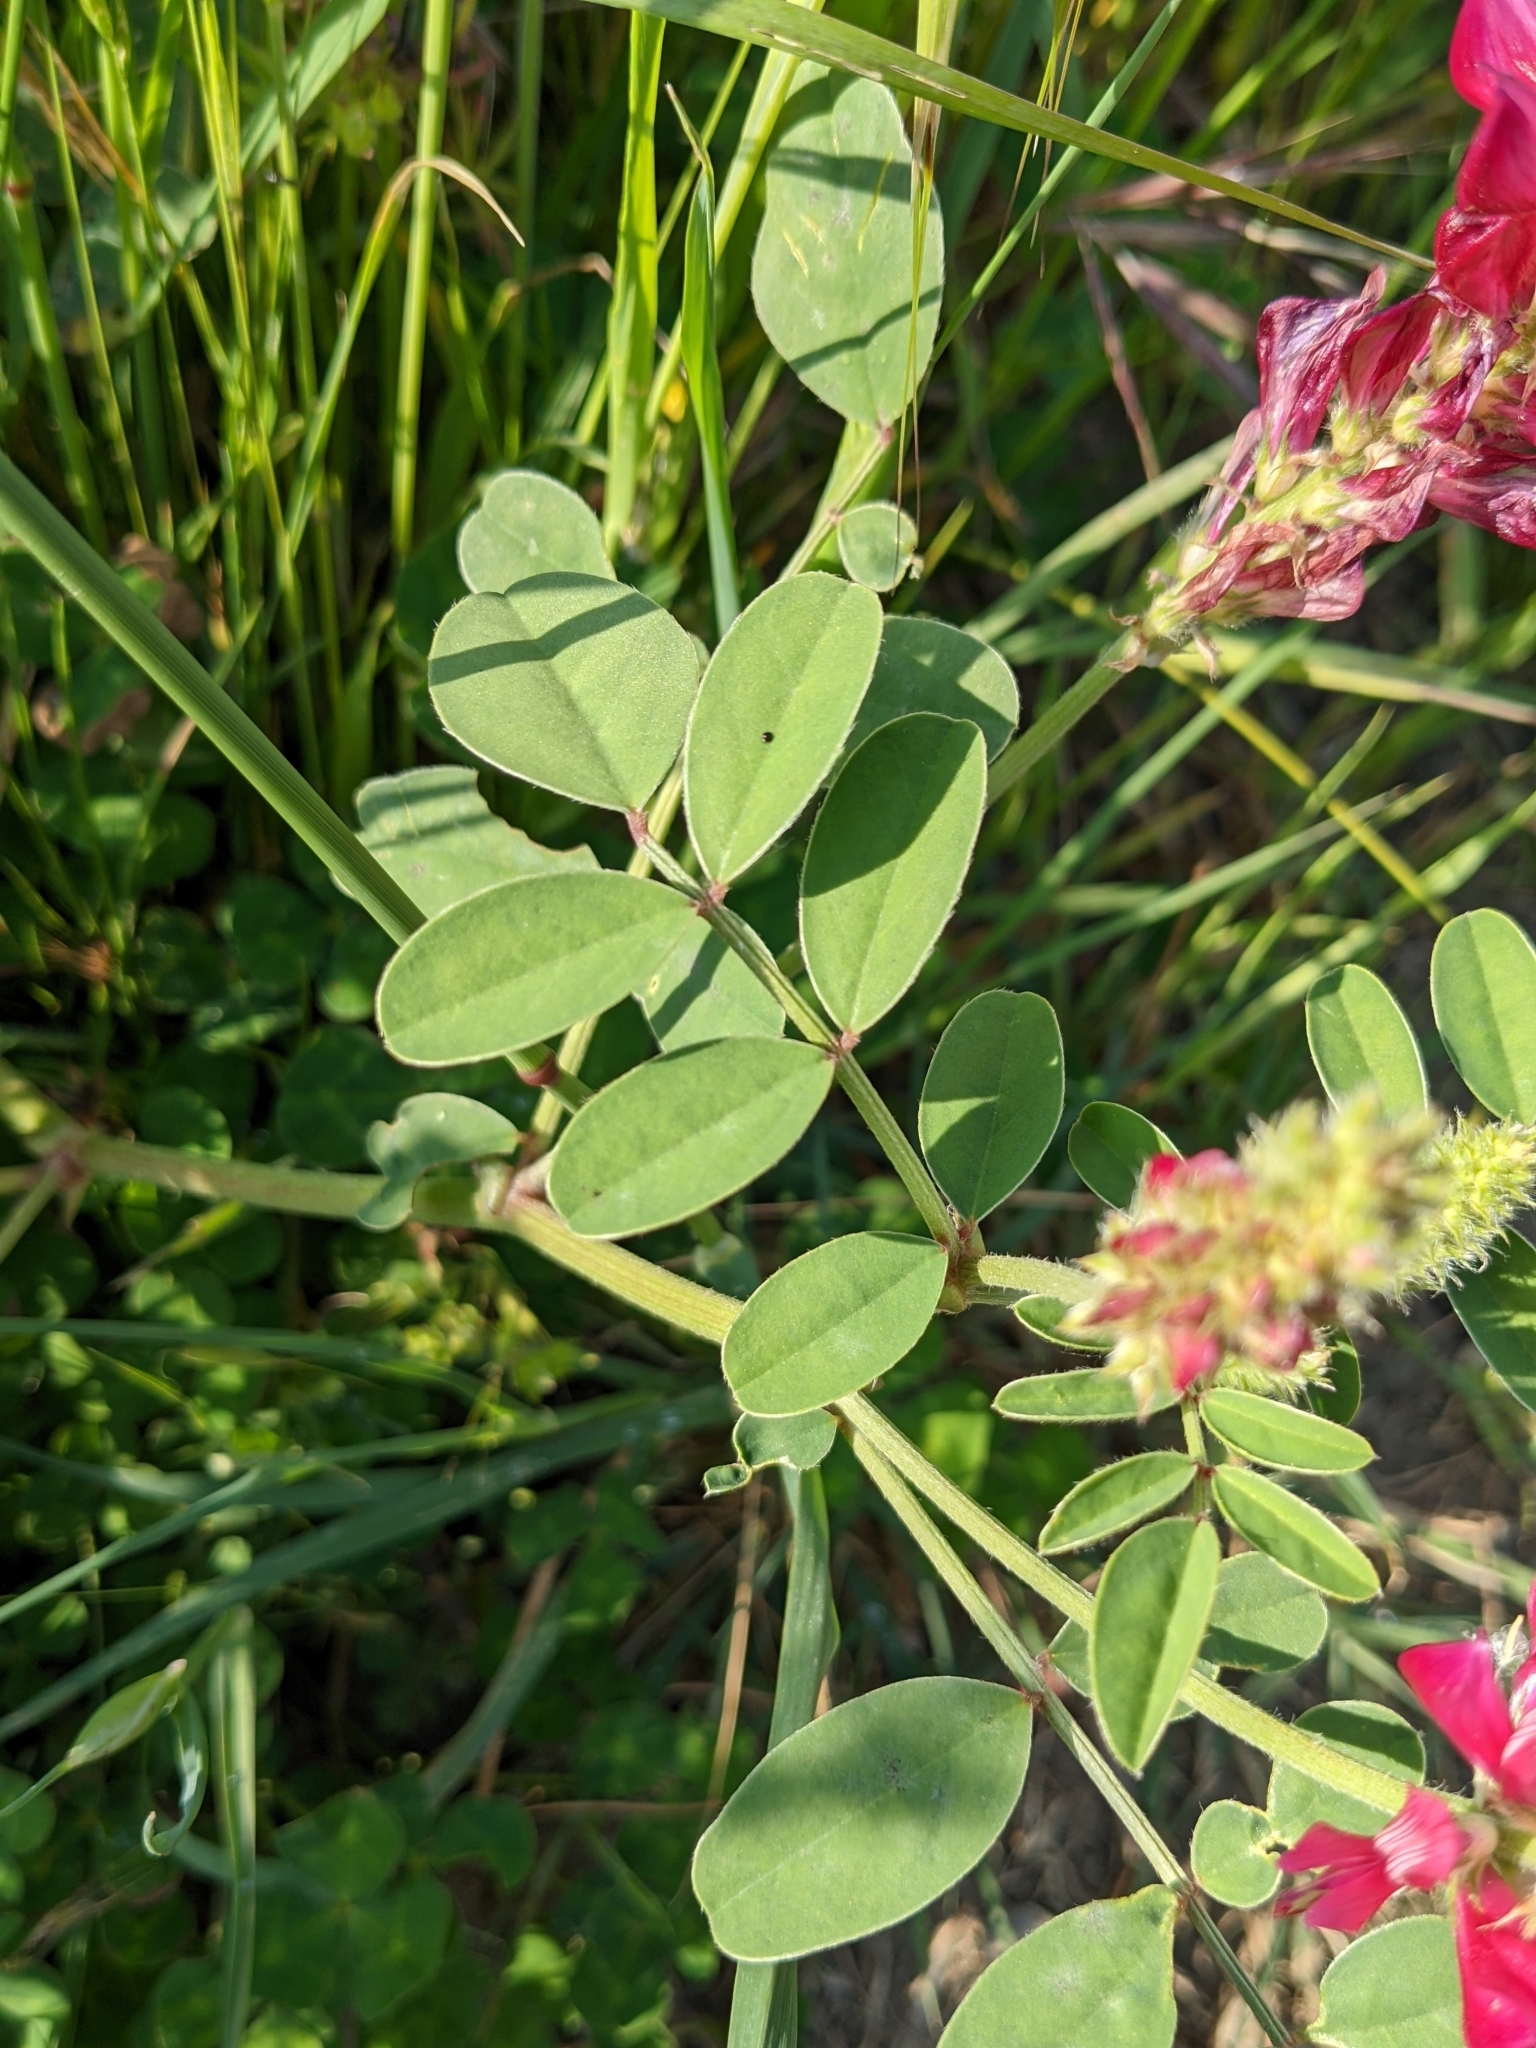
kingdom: Plantae
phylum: Tracheophyta
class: Magnoliopsida
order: Fabales
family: Fabaceae
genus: Sulla
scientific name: Sulla coronaria
